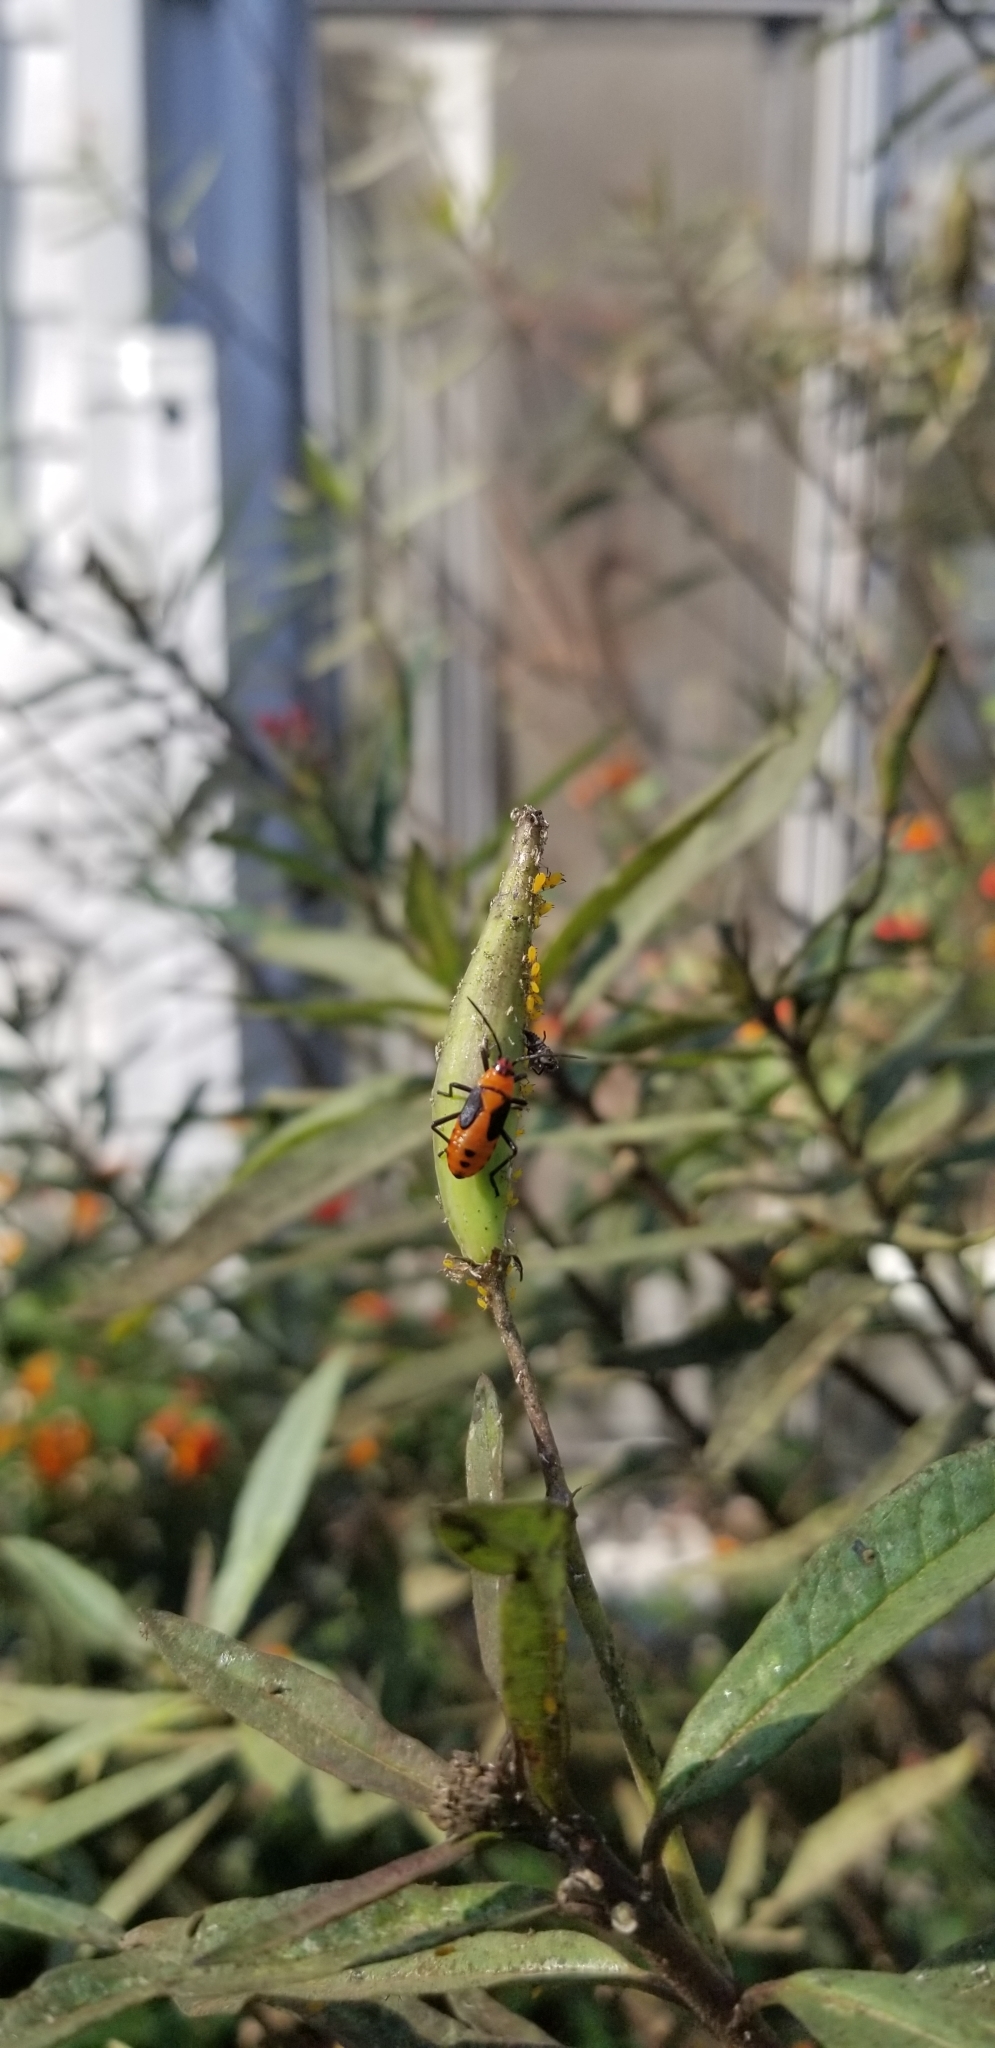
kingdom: Animalia
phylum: Arthropoda
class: Insecta
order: Hemiptera
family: Aphididae
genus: Aphis
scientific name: Aphis nerii
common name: Oleander aphid
